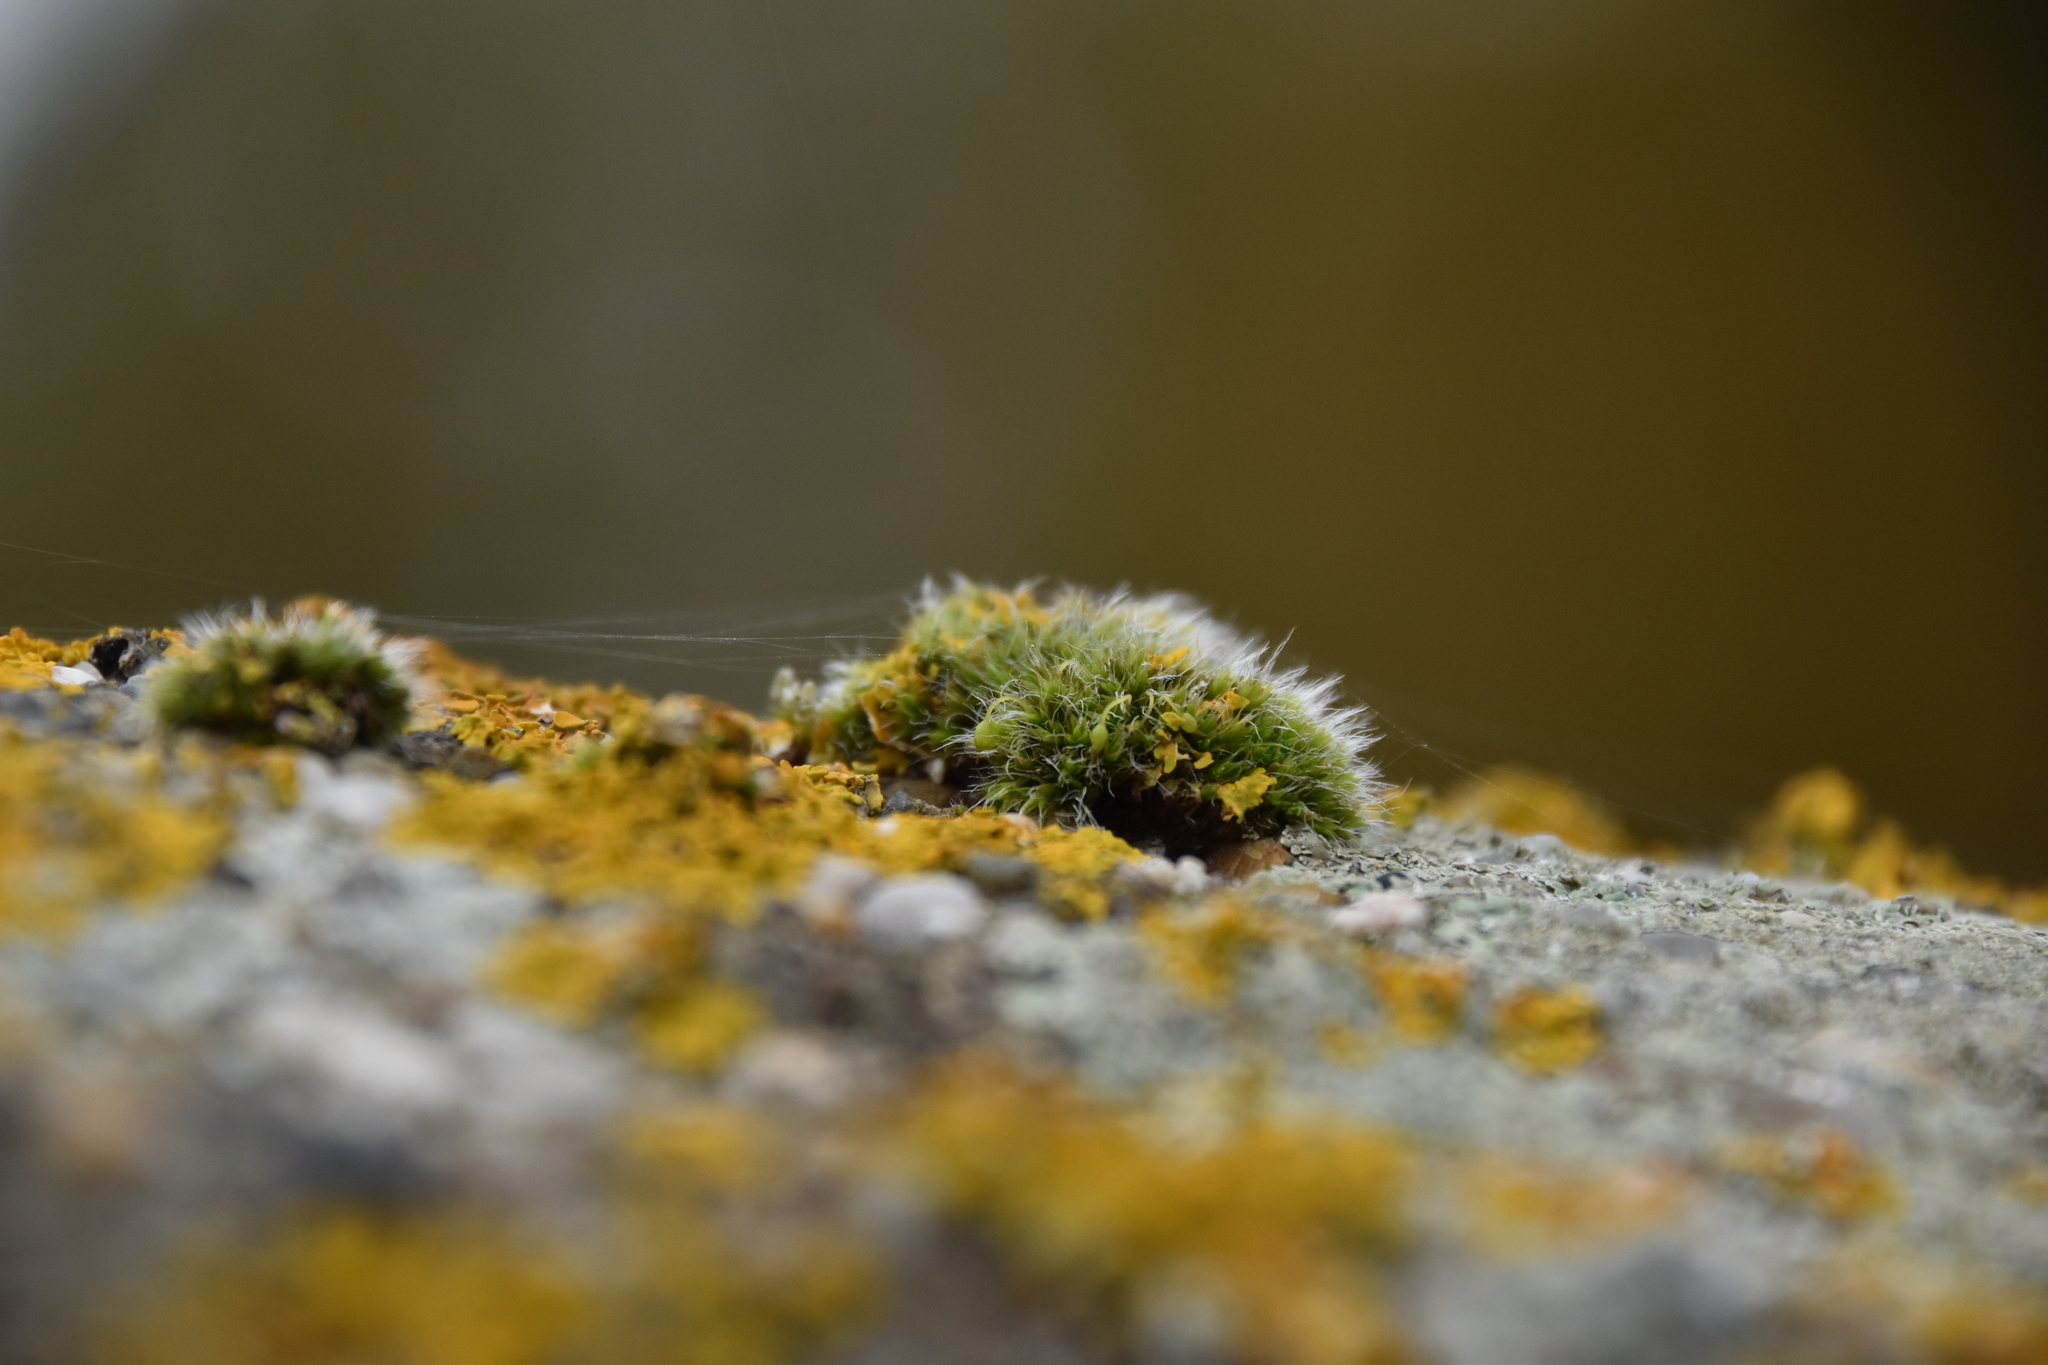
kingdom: Plantae
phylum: Bryophyta
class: Bryopsida
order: Grimmiales
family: Grimmiaceae
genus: Grimmia
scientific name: Grimmia pulvinata
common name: Grey-cushioned grimmia
